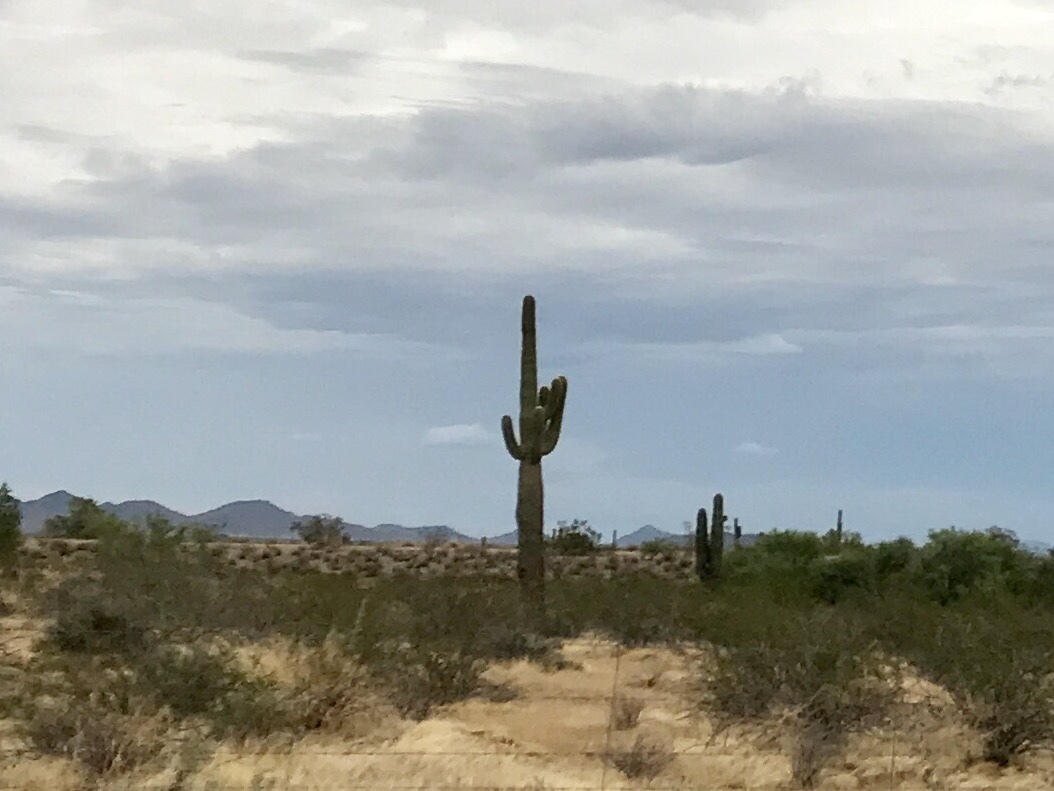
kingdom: Plantae
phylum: Tracheophyta
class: Magnoliopsida
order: Caryophyllales
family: Cactaceae
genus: Carnegiea
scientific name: Carnegiea gigantea
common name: Saguaro
